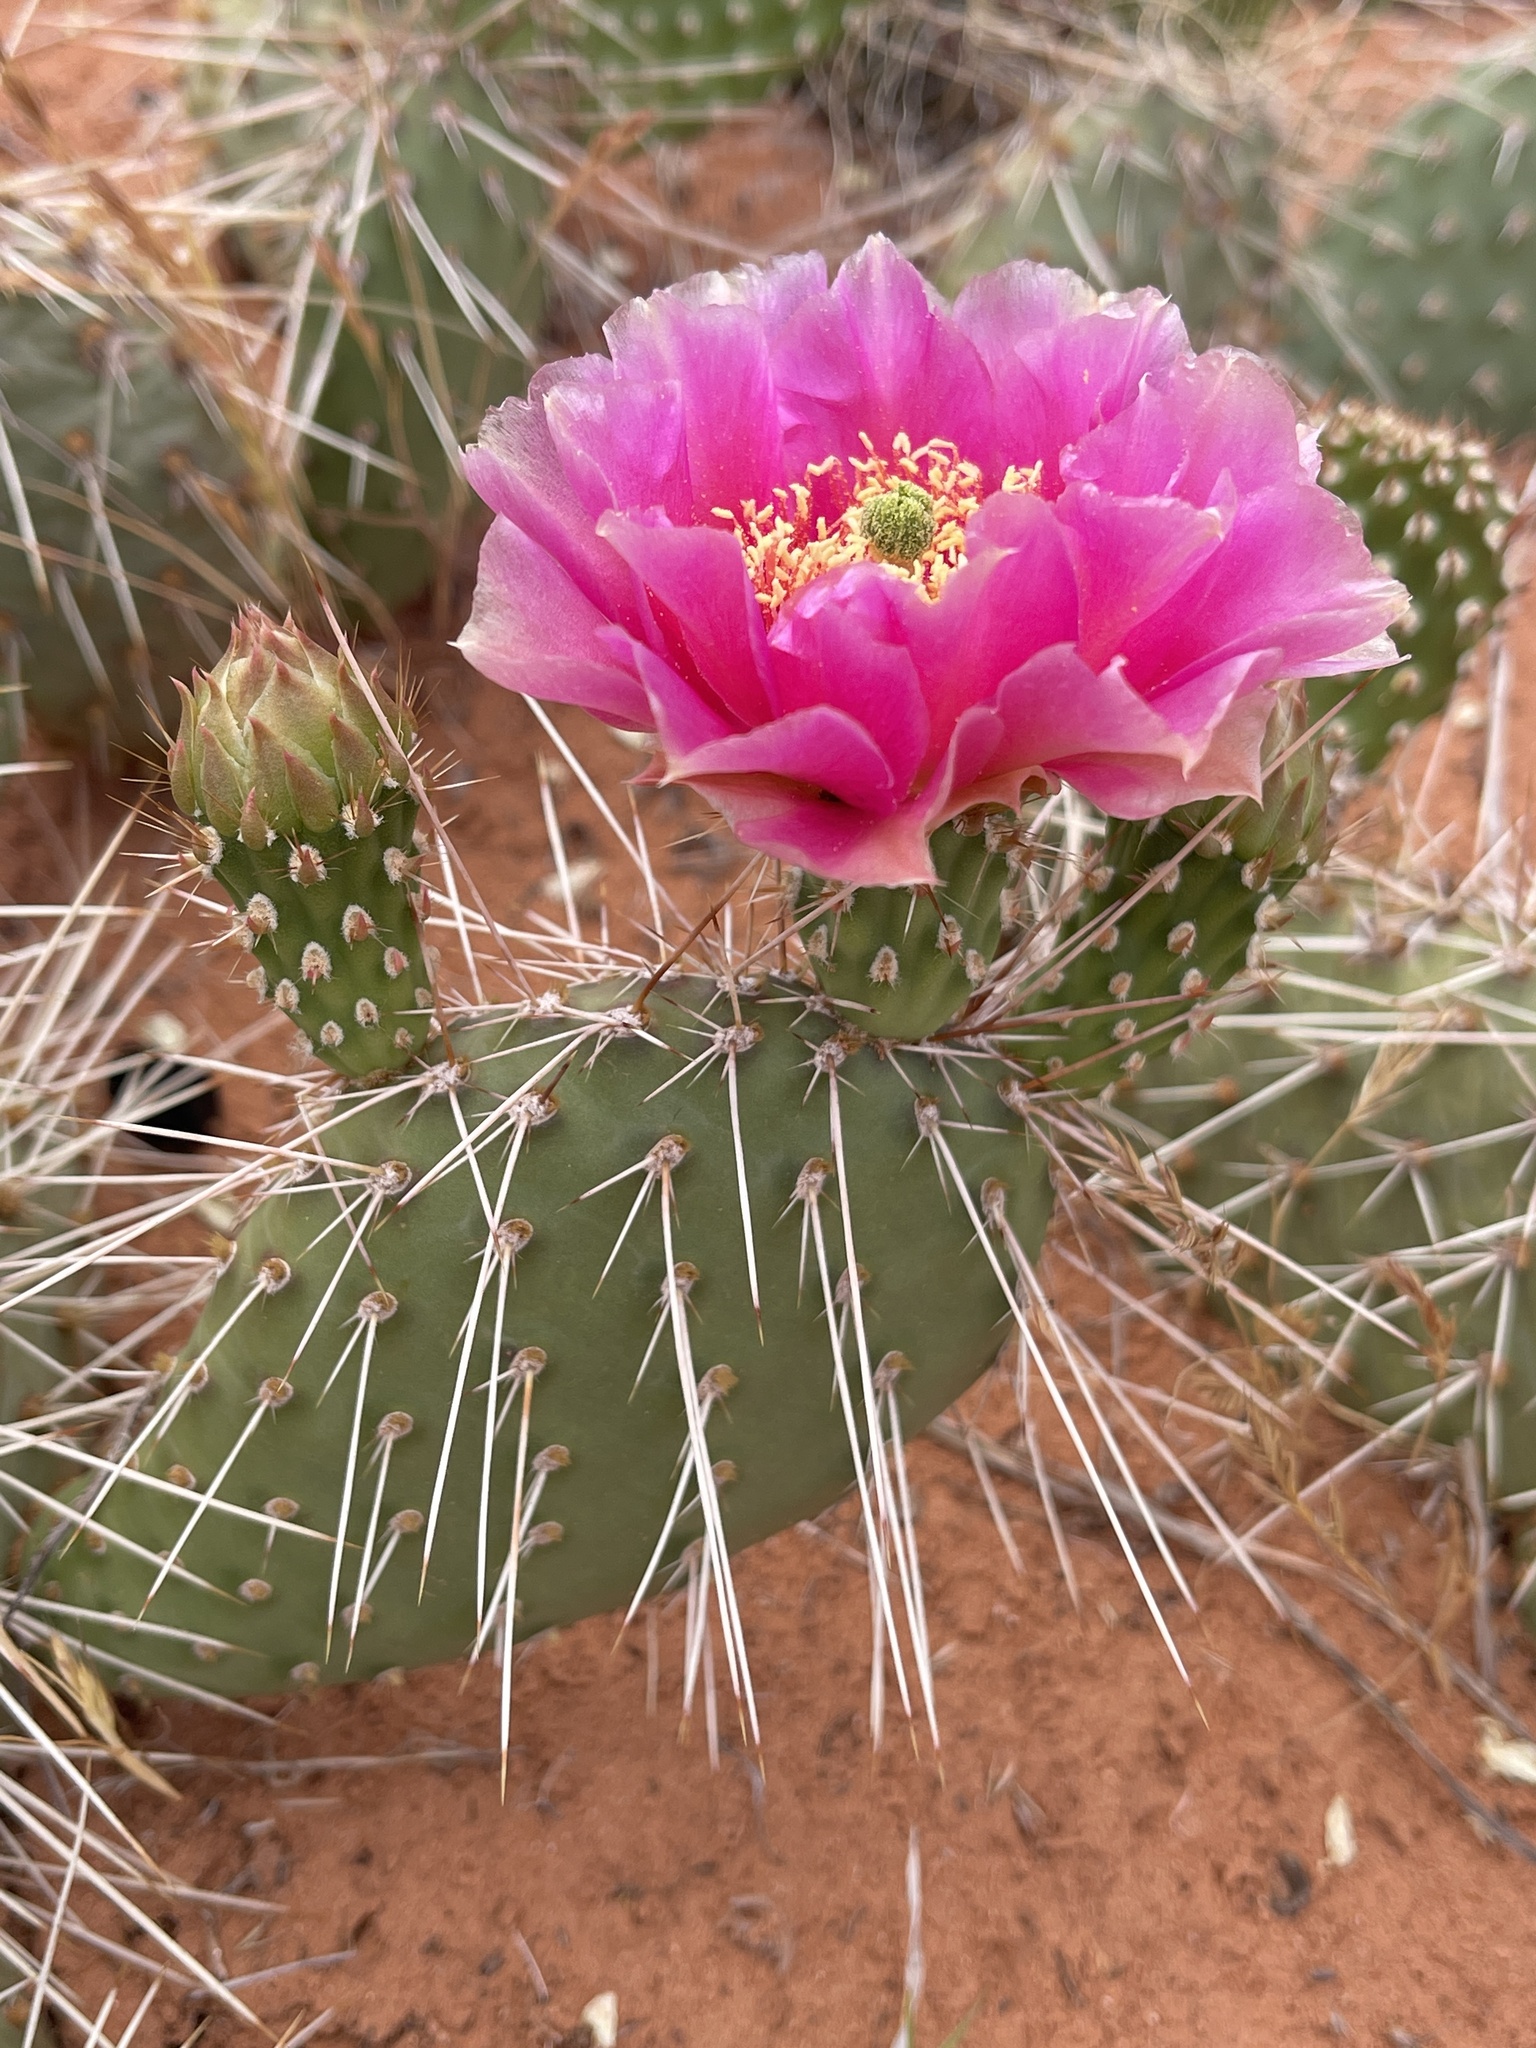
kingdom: Plantae
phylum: Tracheophyta
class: Magnoliopsida
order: Caryophyllales
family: Cactaceae
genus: Opuntia
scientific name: Opuntia polyacantha
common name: Plains prickly-pear
